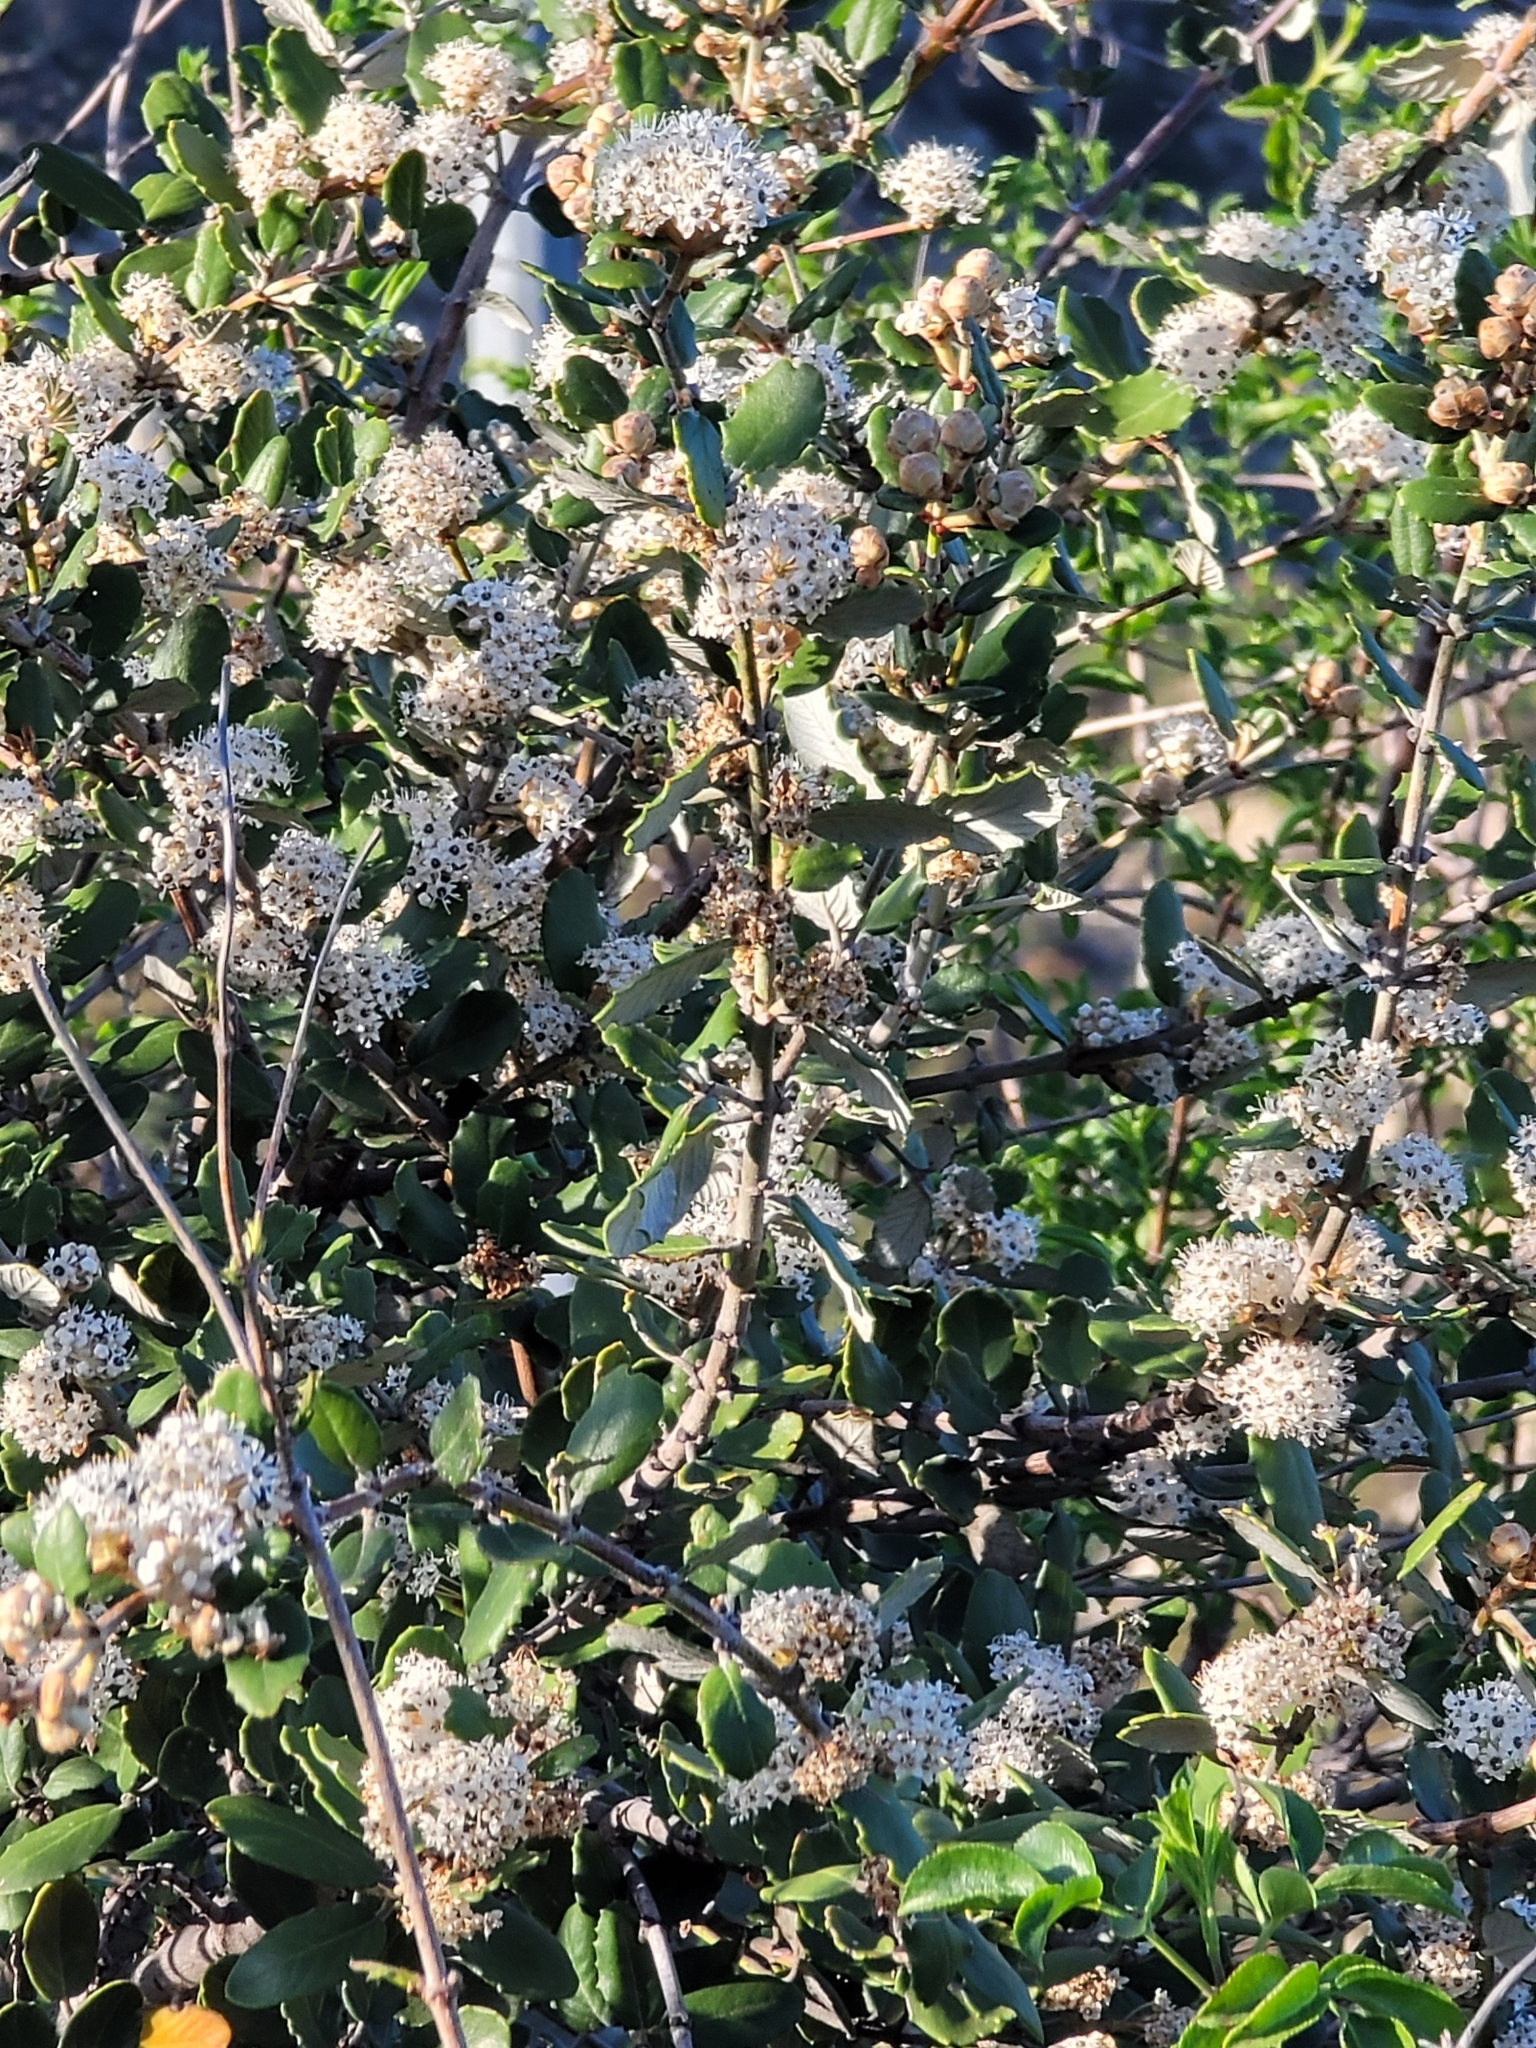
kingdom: Plantae
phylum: Tracheophyta
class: Magnoliopsida
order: Rosales
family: Rhamnaceae
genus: Ceanothus
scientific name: Ceanothus crassifolius
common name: Hoaryleaf ceanothus
